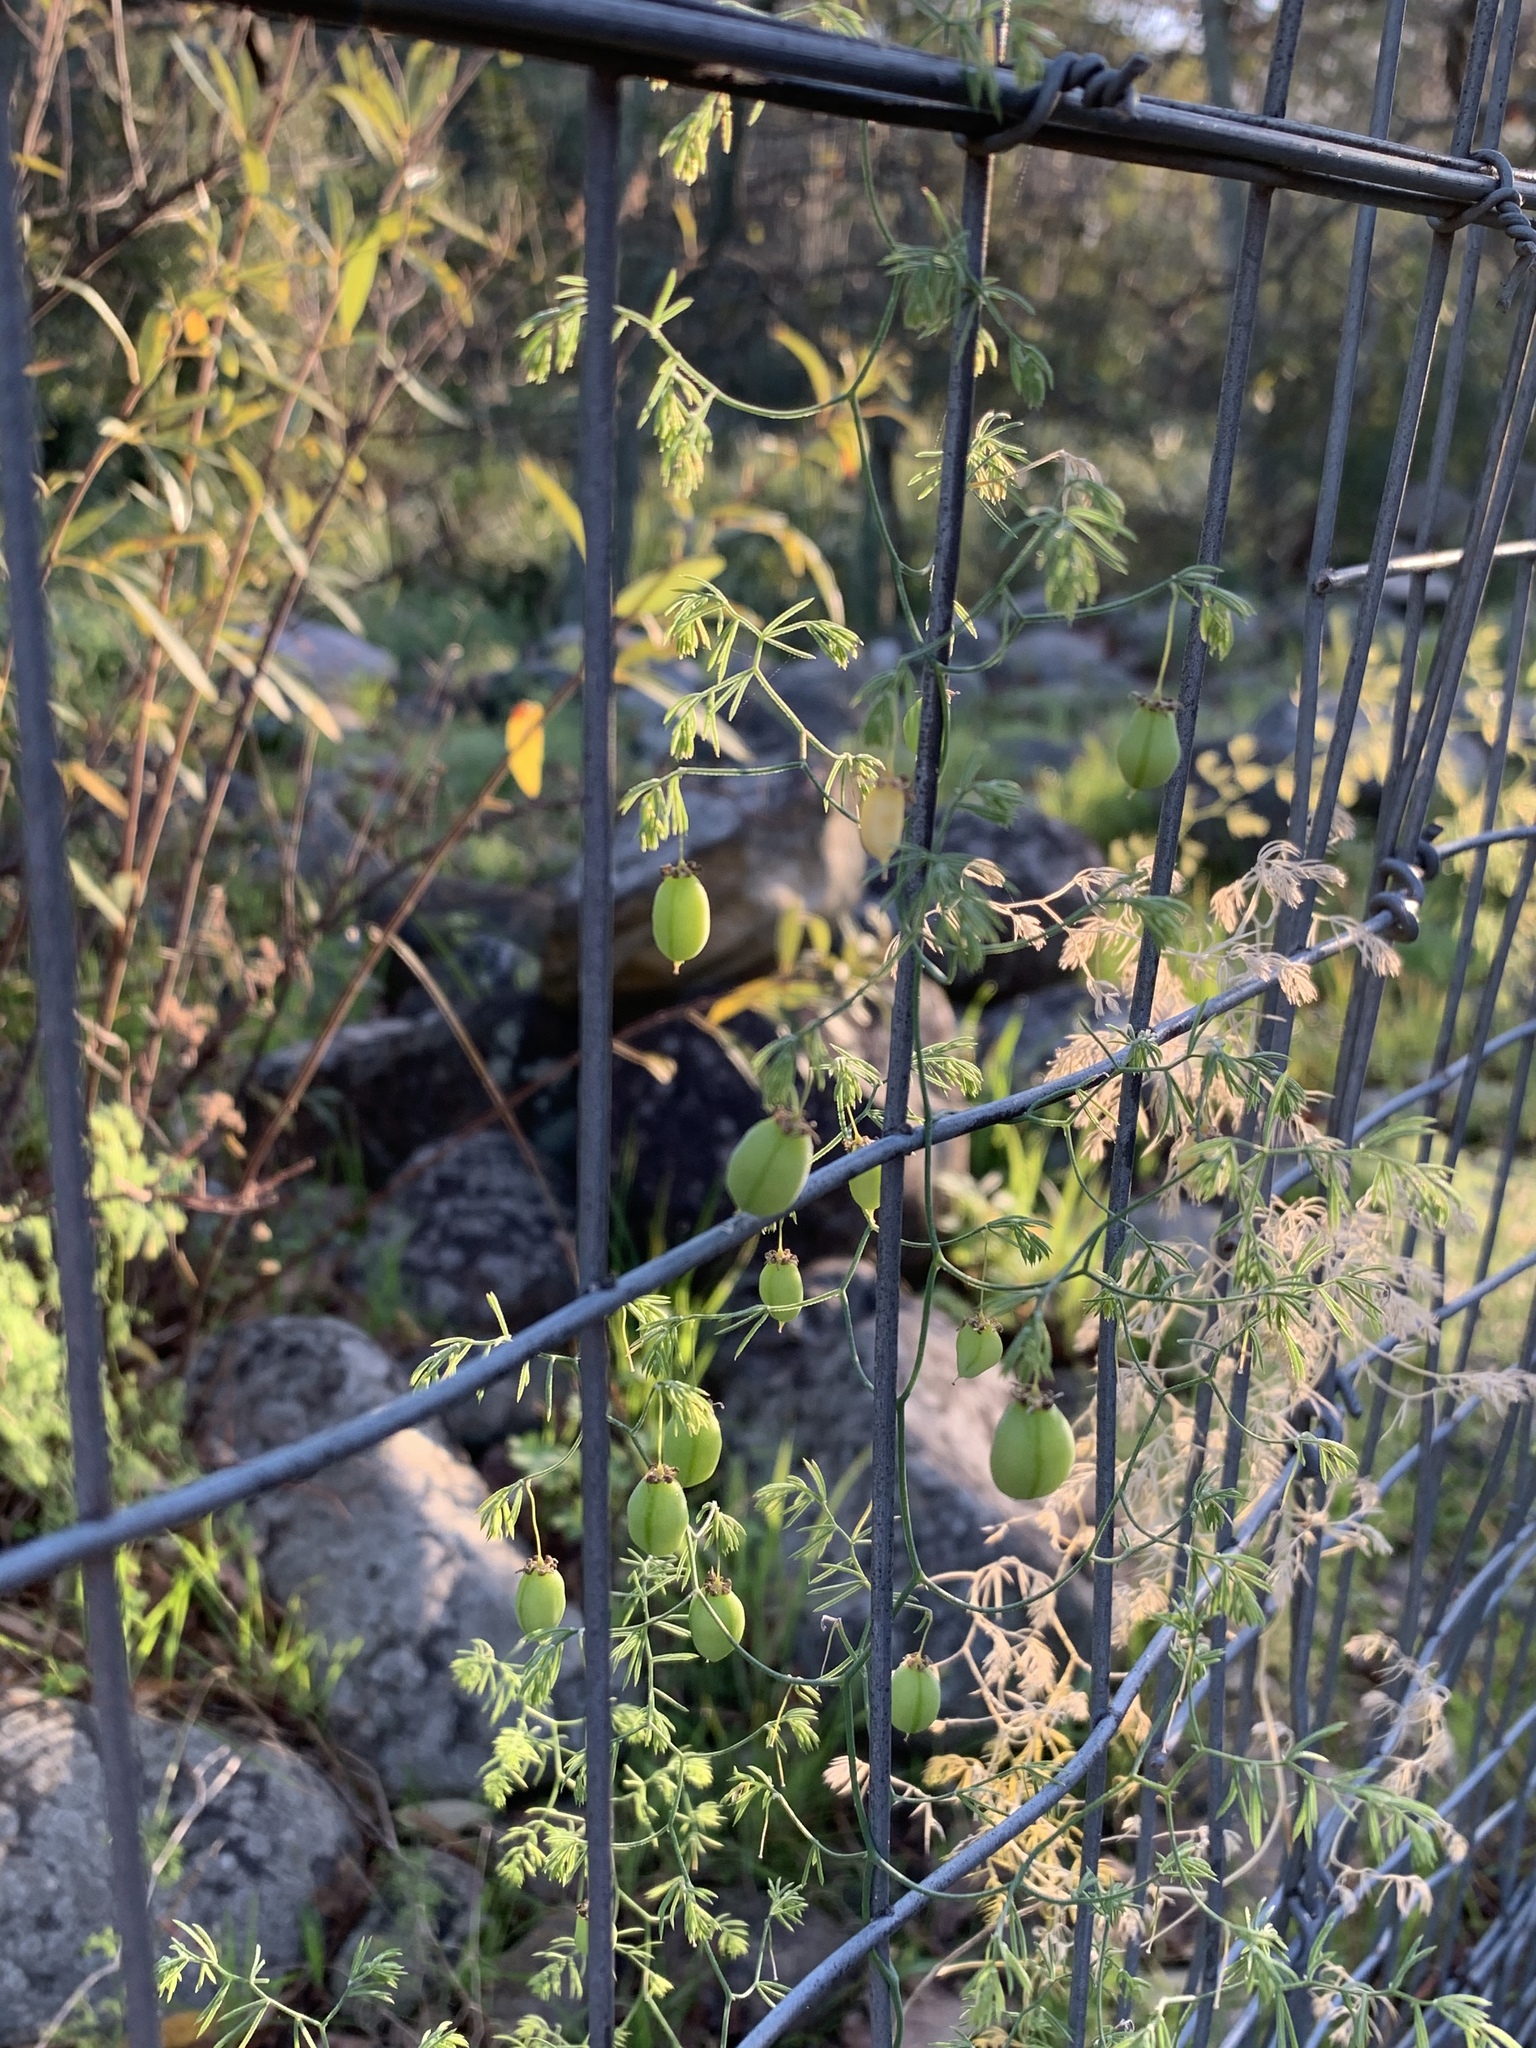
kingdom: Plantae
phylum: Tracheophyta
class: Liliopsida
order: Asparagales
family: Asparagaceae
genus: Asparagus
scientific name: Asparagus declinatus
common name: Bridal-creeper
